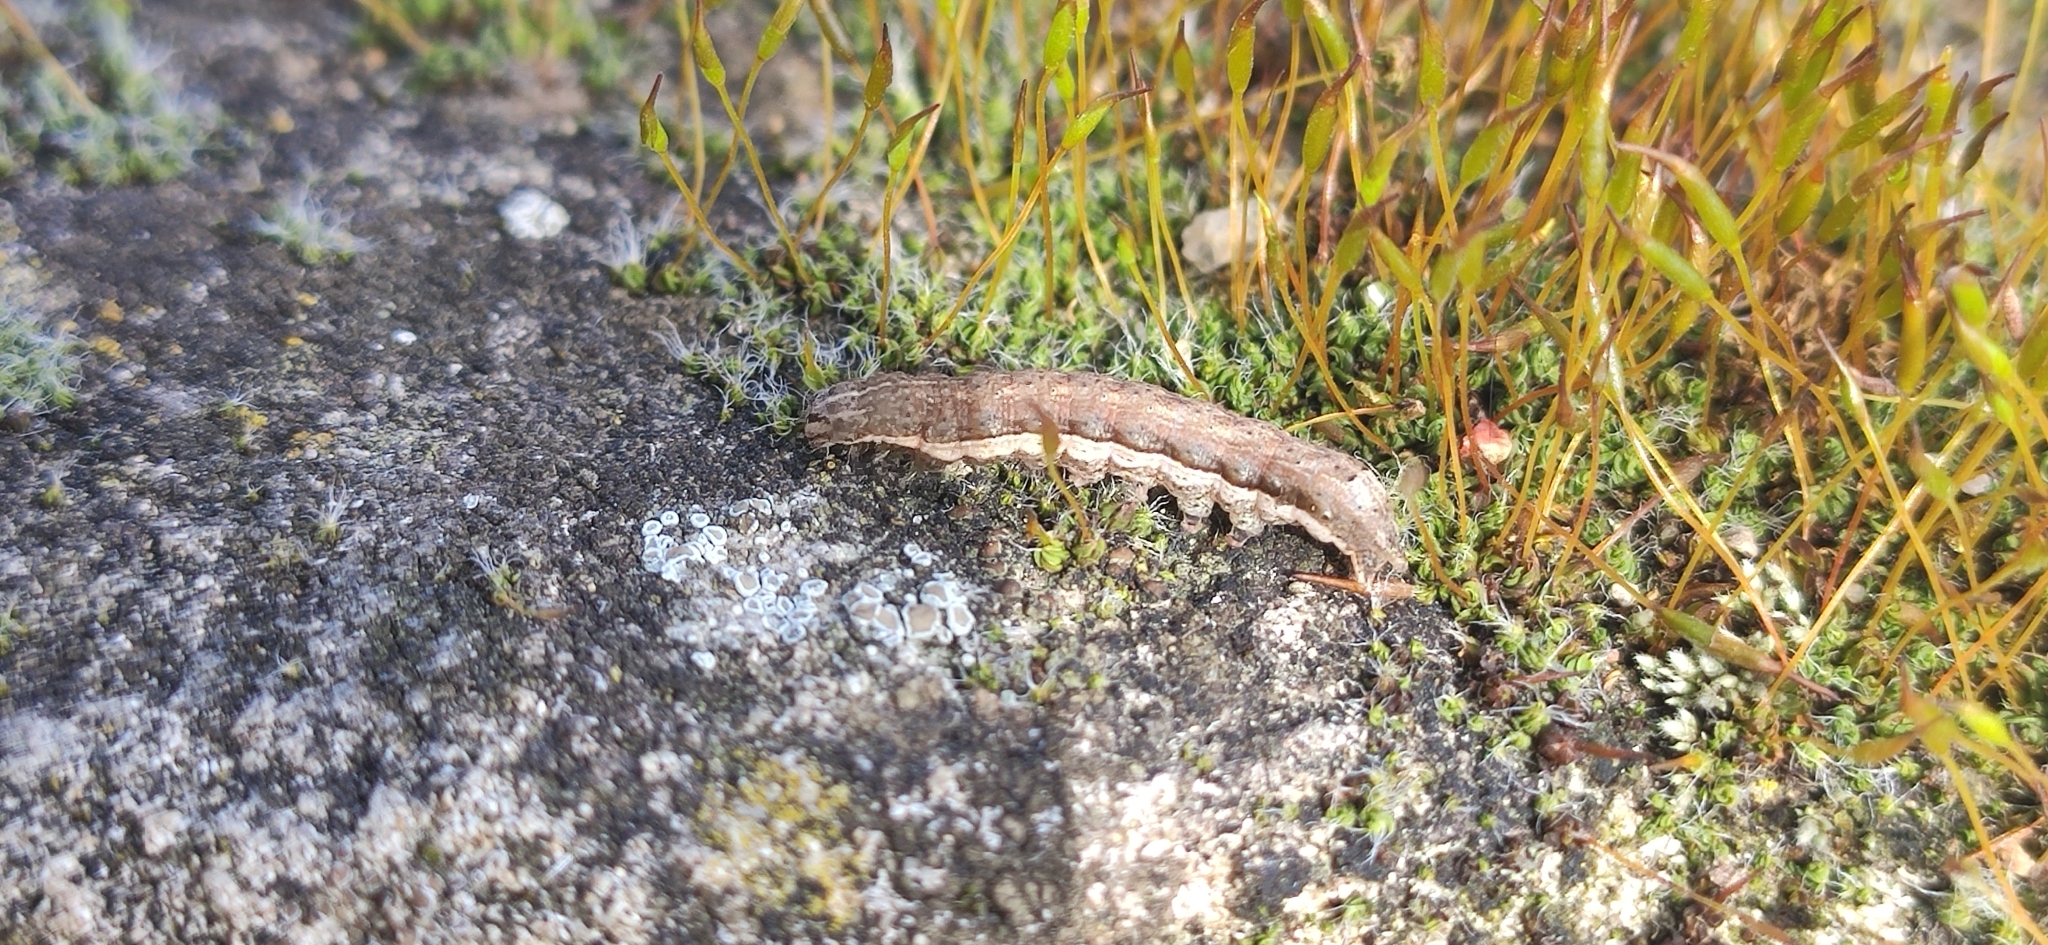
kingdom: Animalia
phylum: Arthropoda
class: Insecta
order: Lepidoptera
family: Noctuidae
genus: Noctua
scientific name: Noctua comes
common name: Lesser yellow underwing
